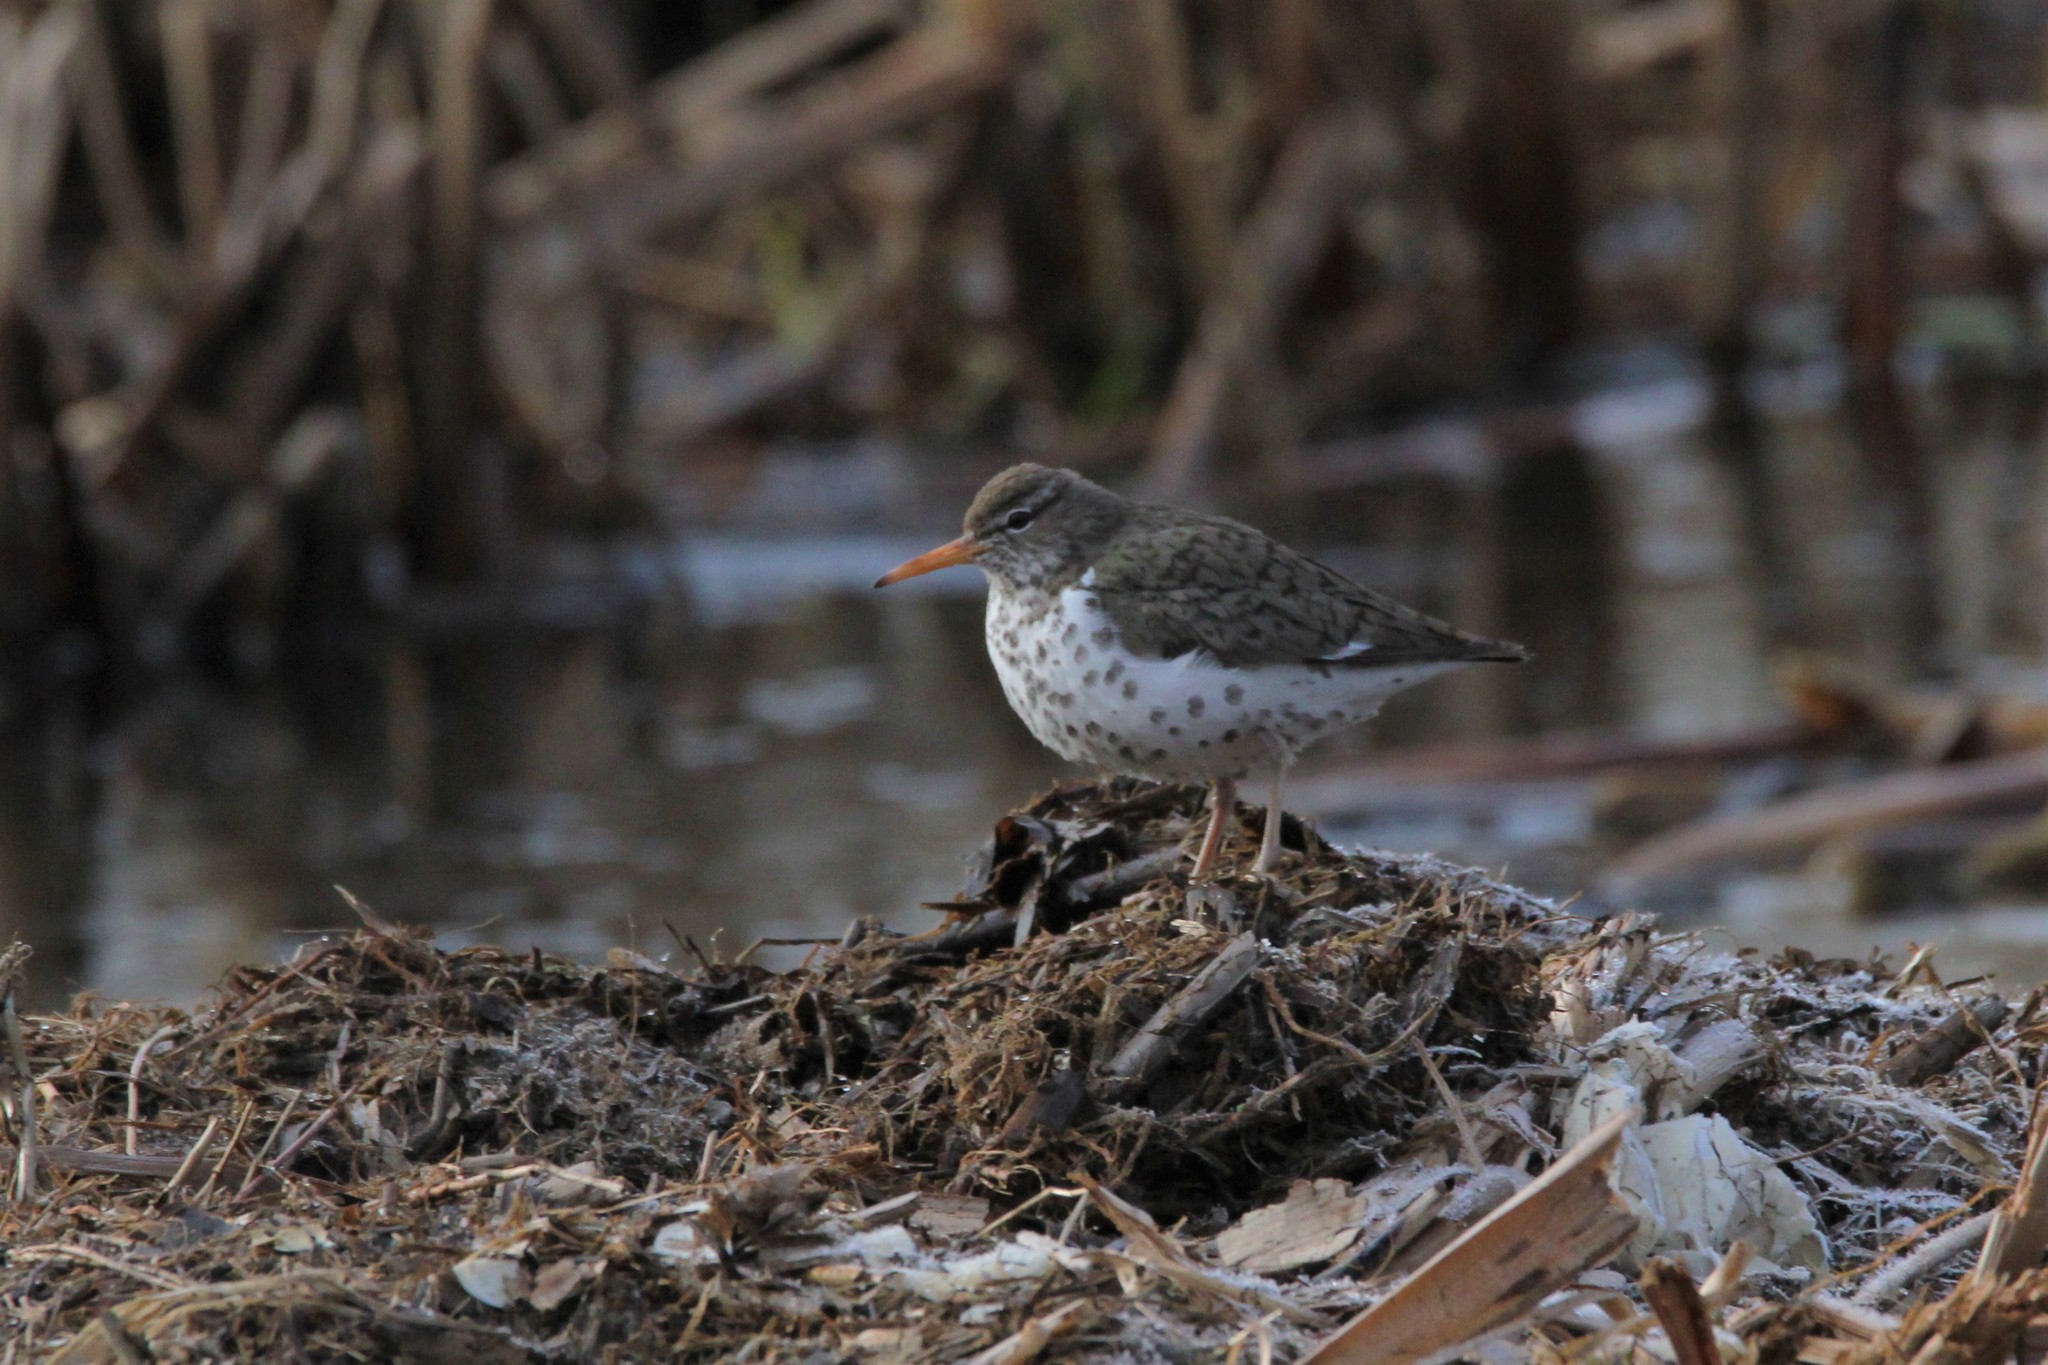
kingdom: Animalia
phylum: Chordata
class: Aves
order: Charadriiformes
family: Scolopacidae
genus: Actitis
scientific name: Actitis macularius
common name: Spotted sandpiper
